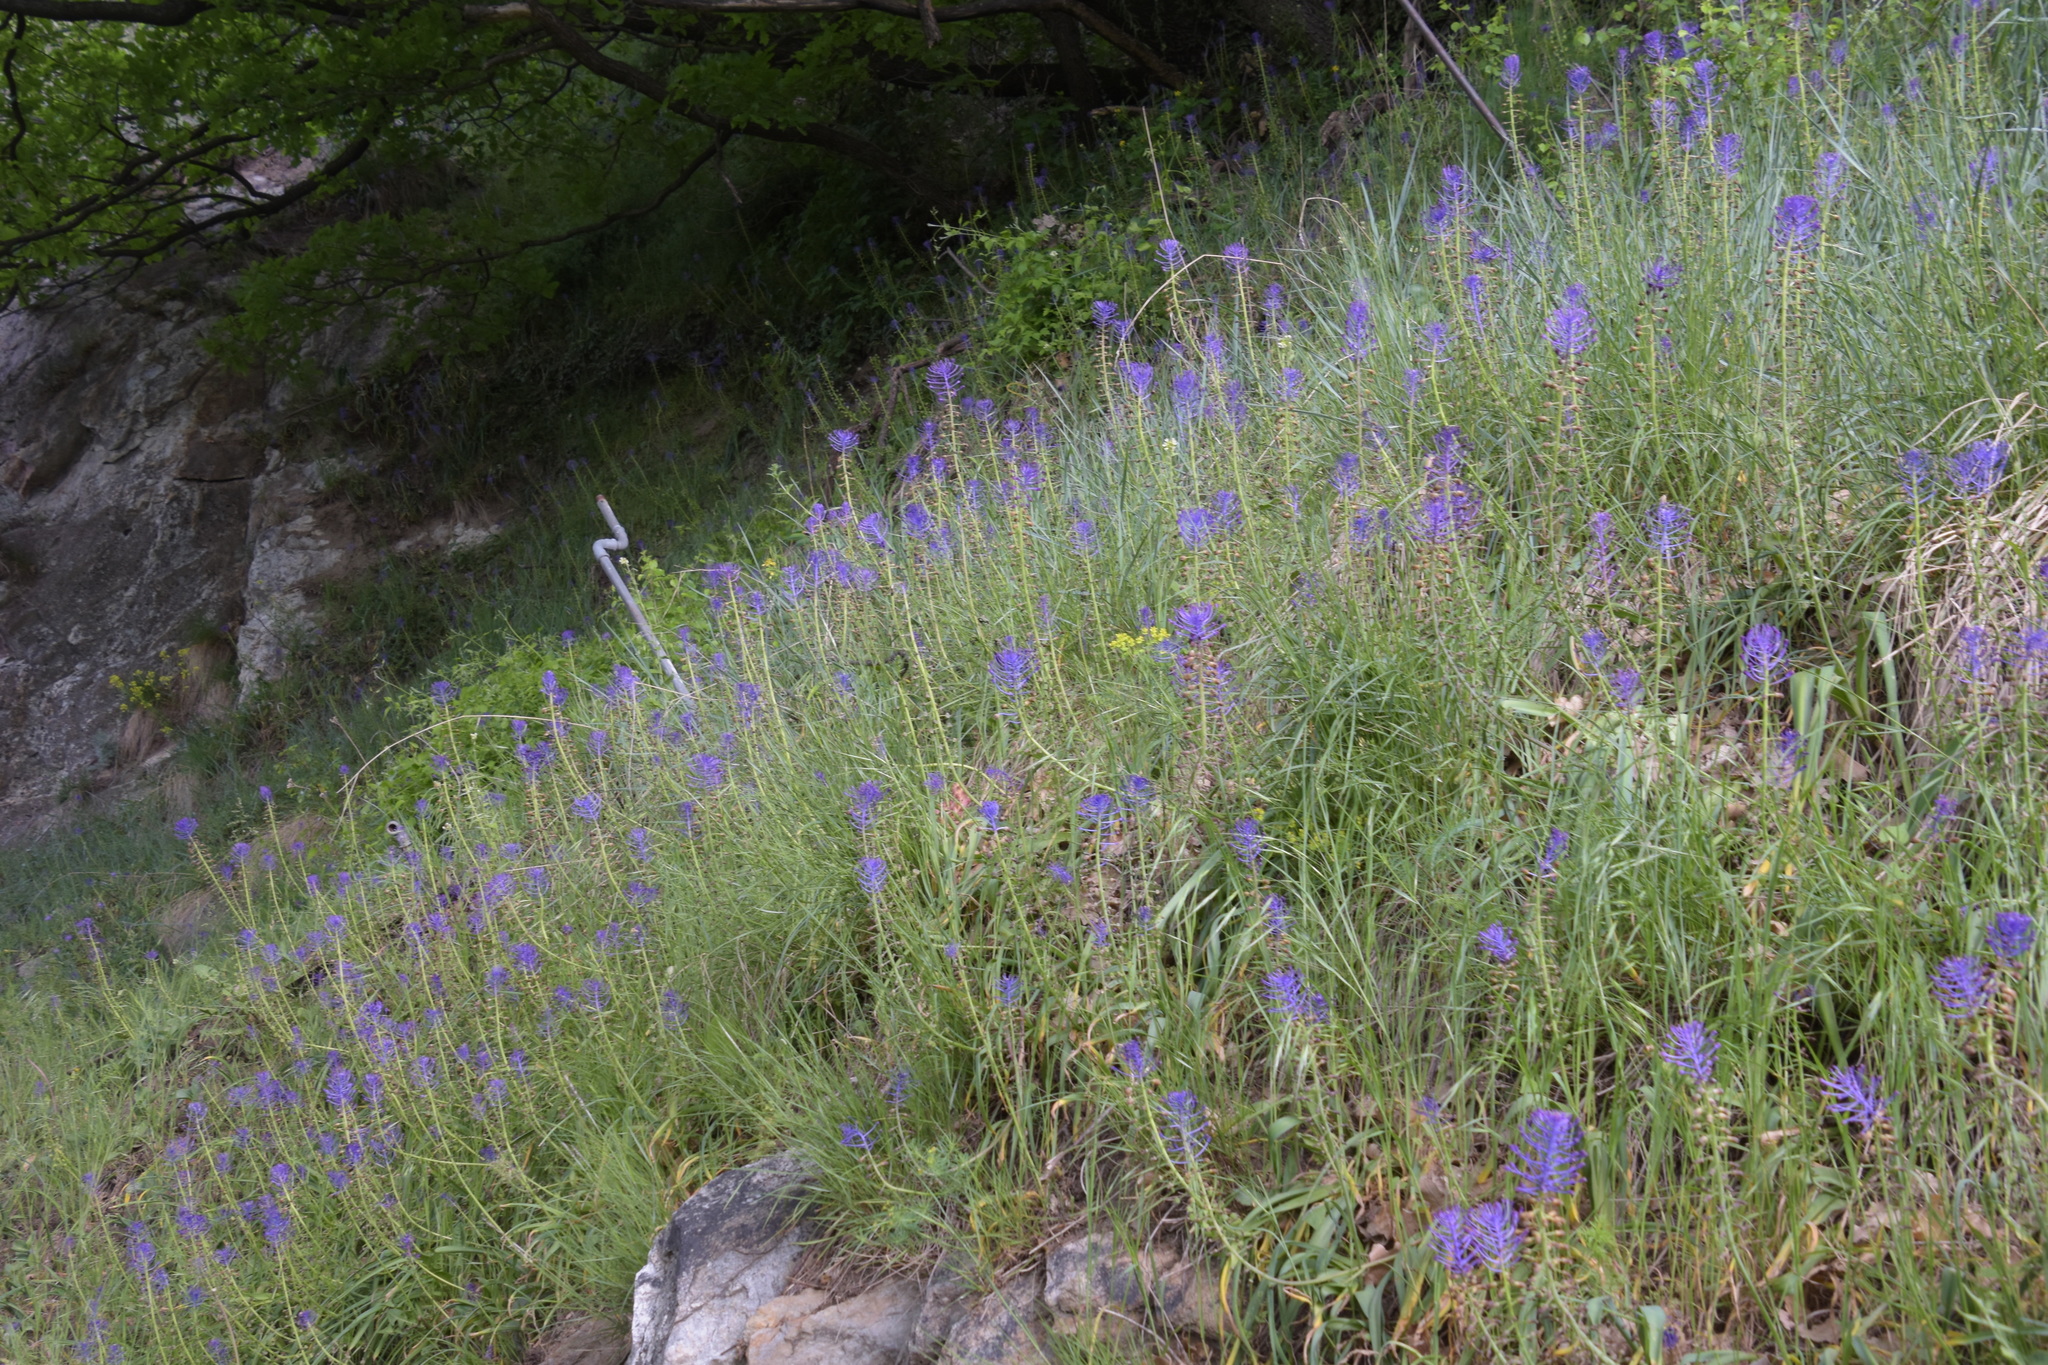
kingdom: Plantae
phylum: Tracheophyta
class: Liliopsida
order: Asparagales
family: Asparagaceae
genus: Muscari
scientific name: Muscari comosum
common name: Tassel hyacinth
